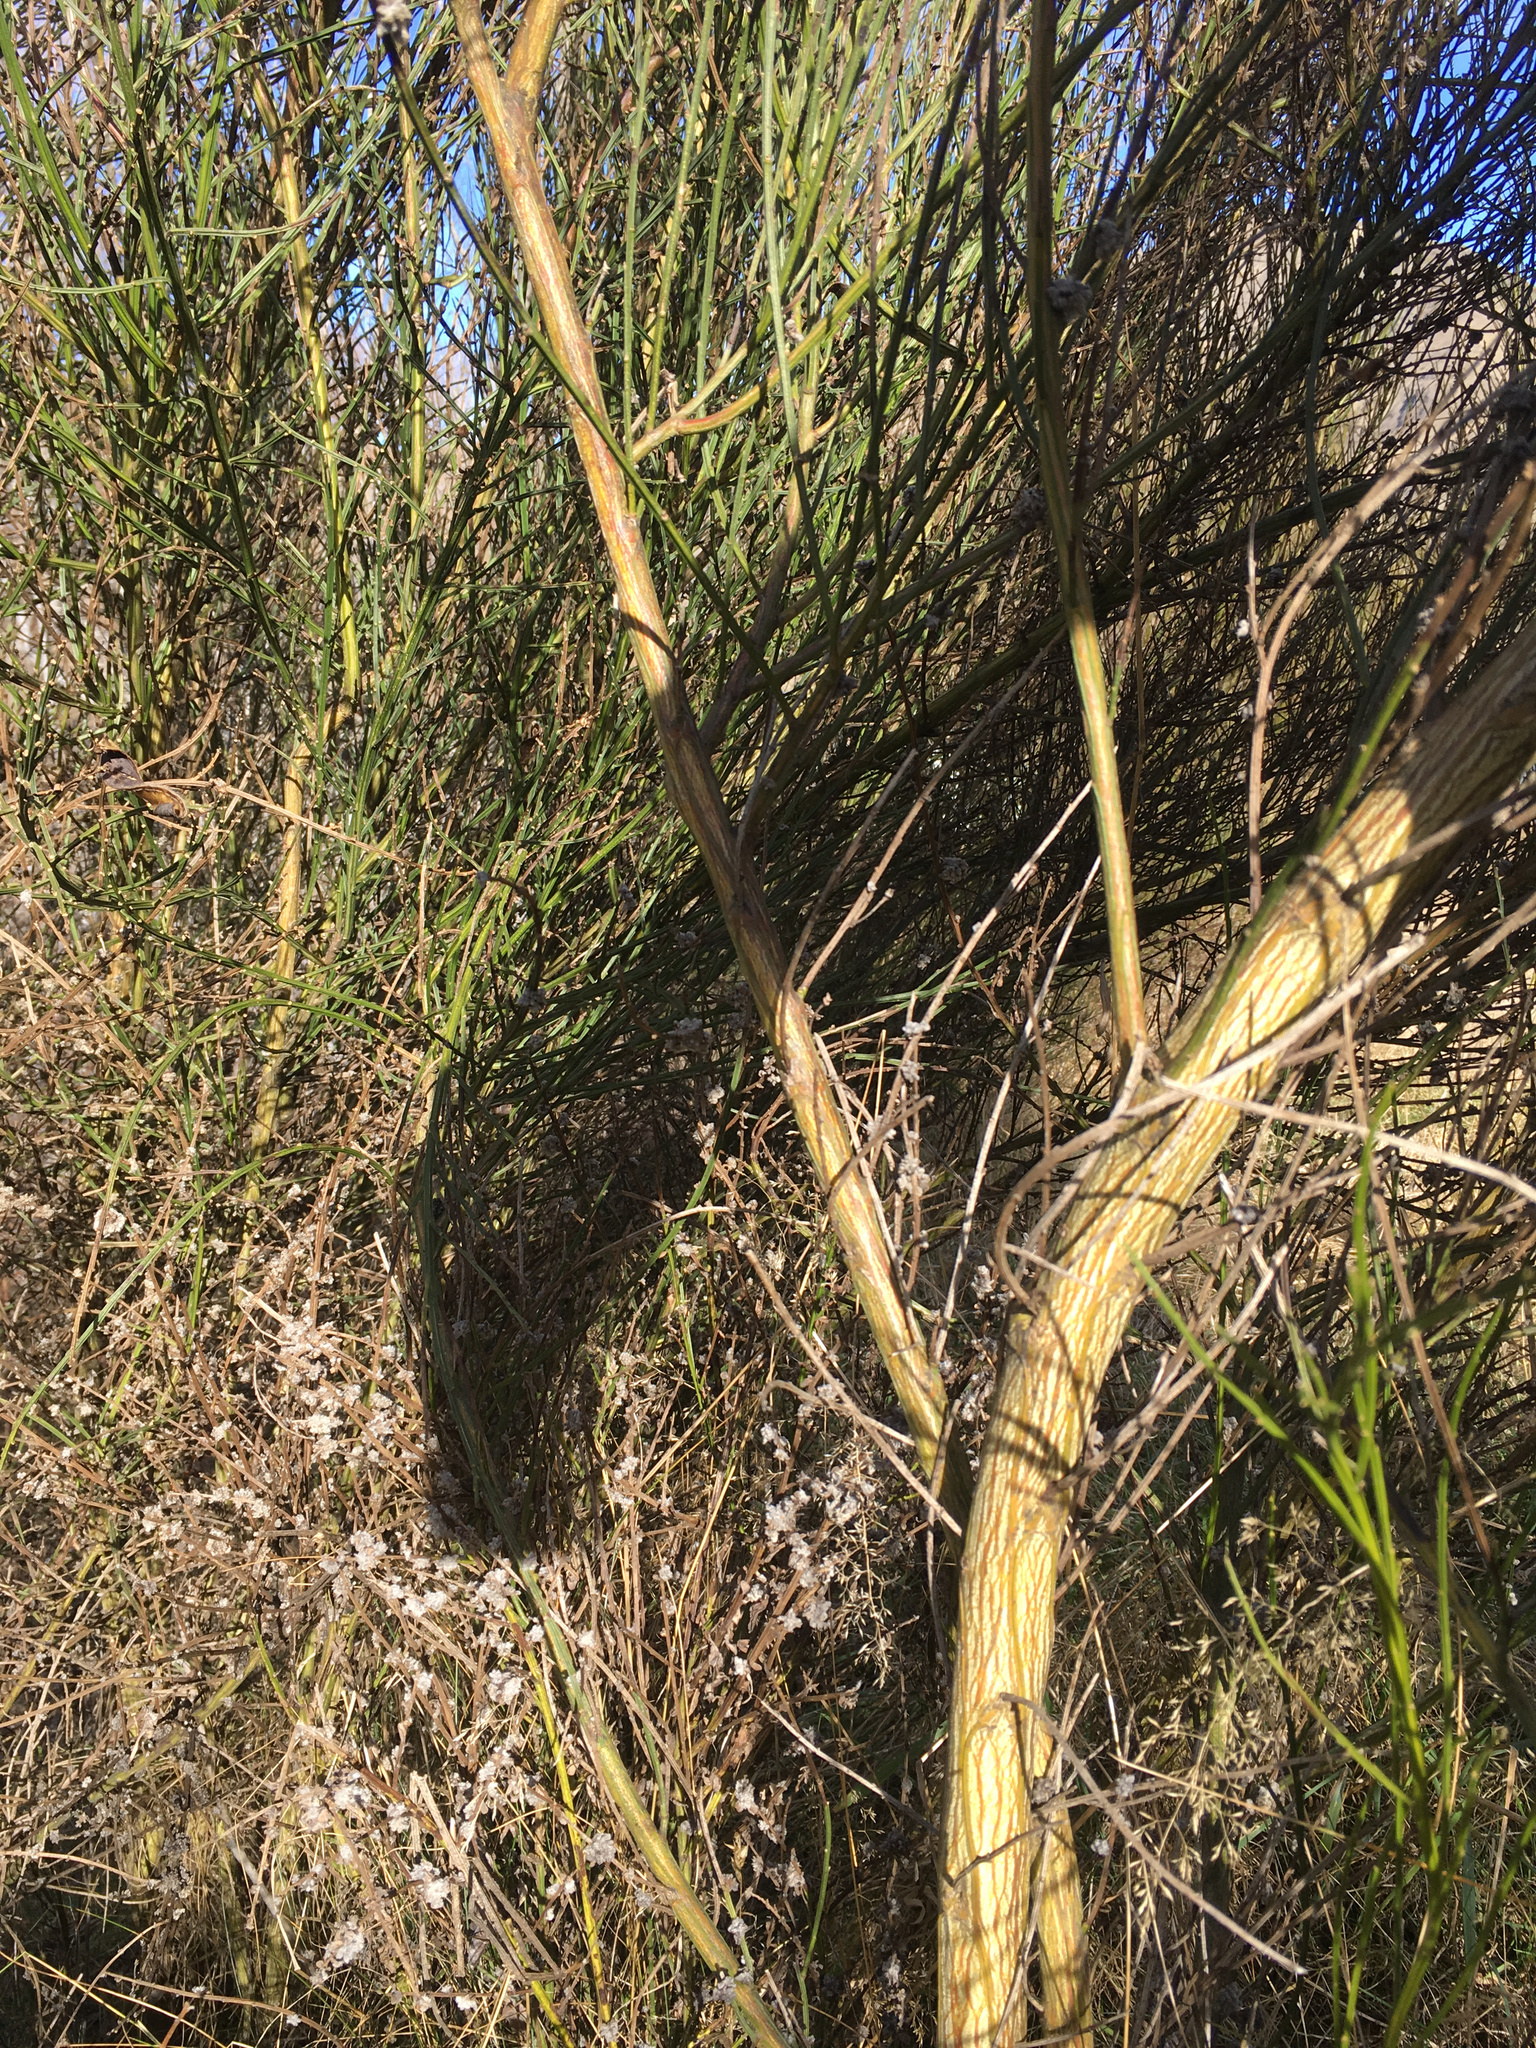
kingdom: Animalia
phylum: Arthropoda
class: Arachnida
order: Trombidiformes
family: Eriophyidae
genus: Aceria
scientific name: Aceria genistae
